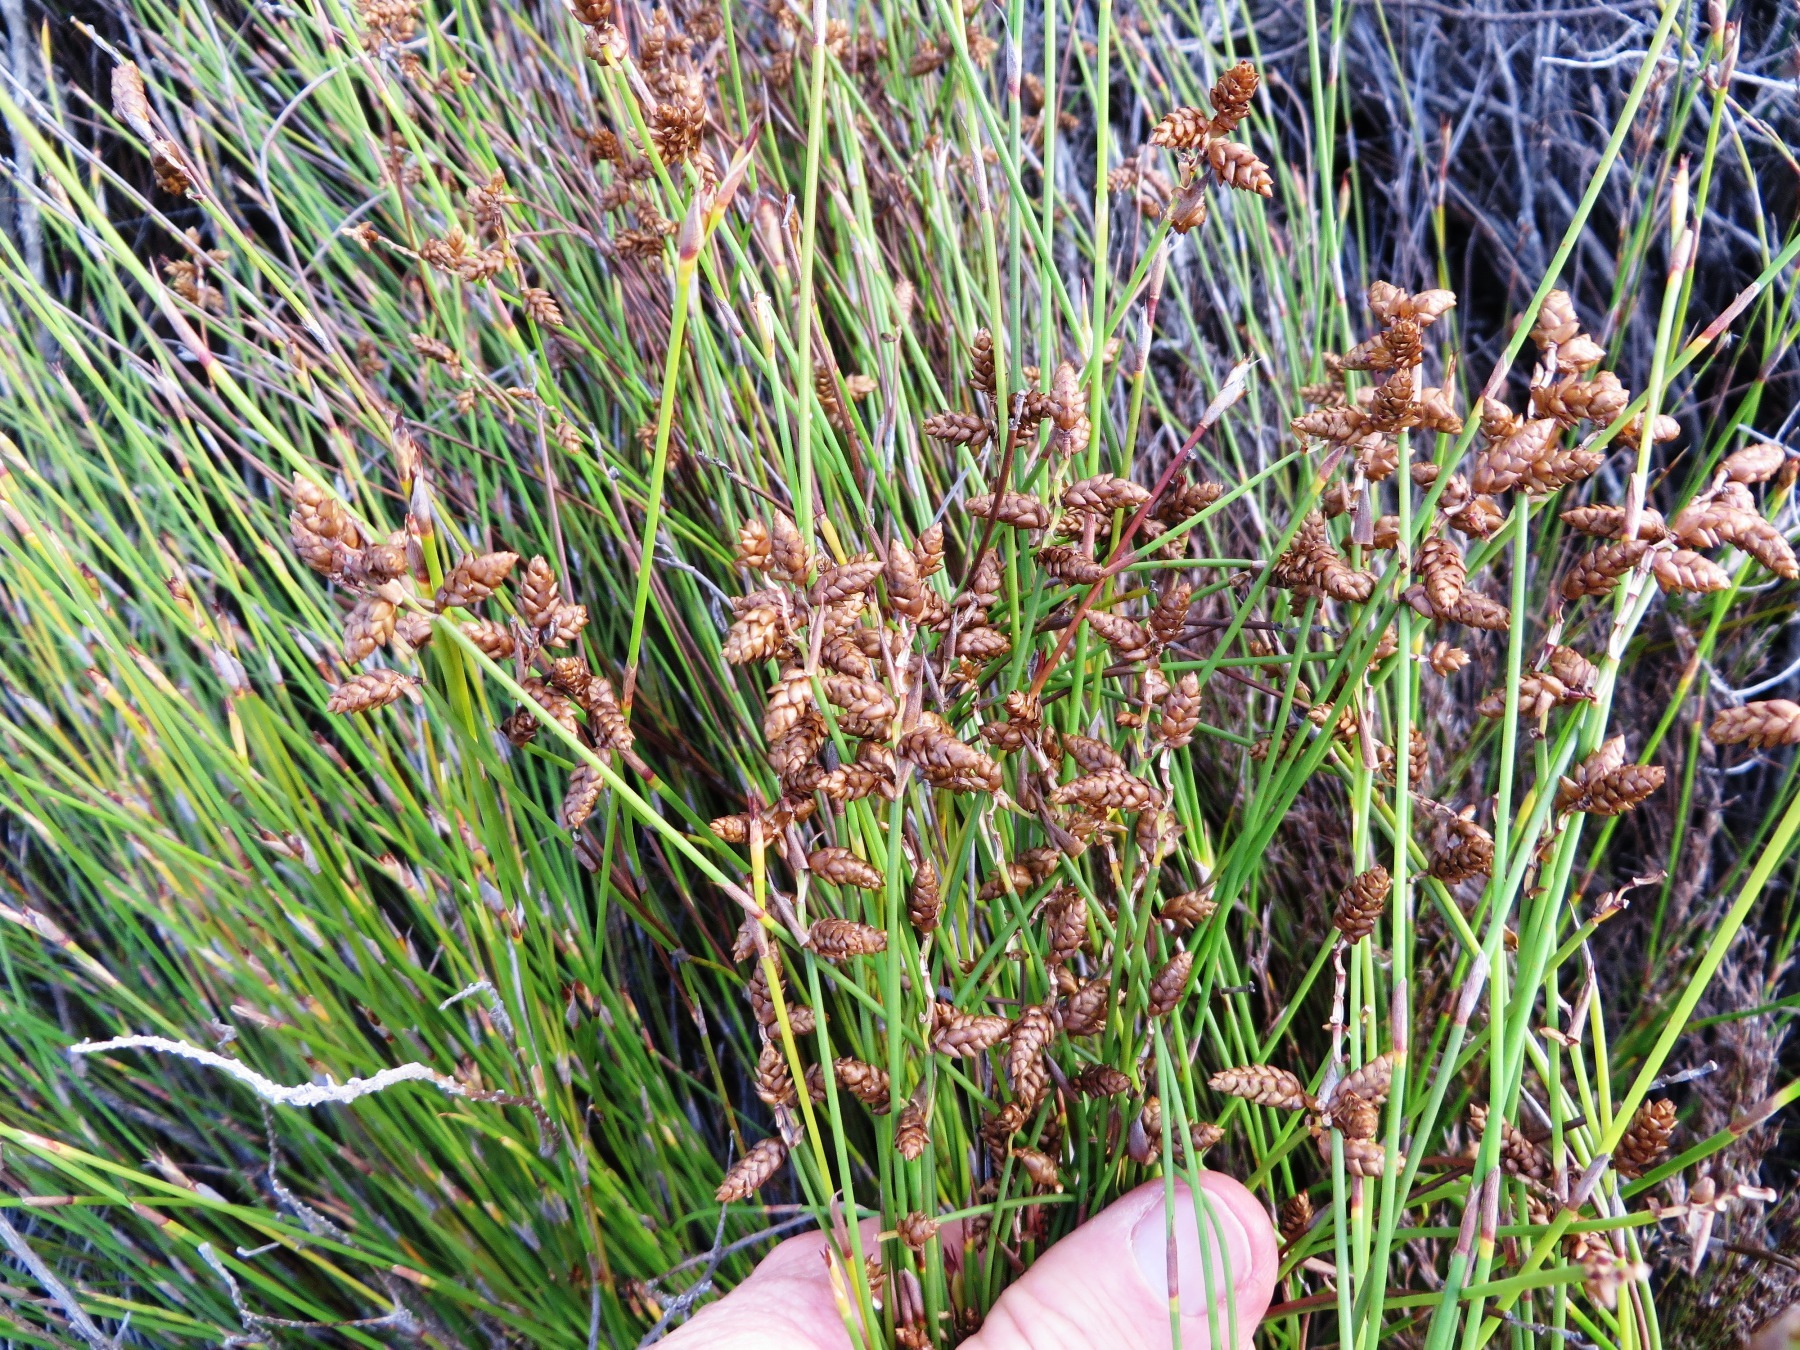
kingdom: Plantae
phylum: Tracheophyta
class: Liliopsida
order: Poales
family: Restionaceae
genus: Mastersiella
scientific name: Mastersiella digitata
